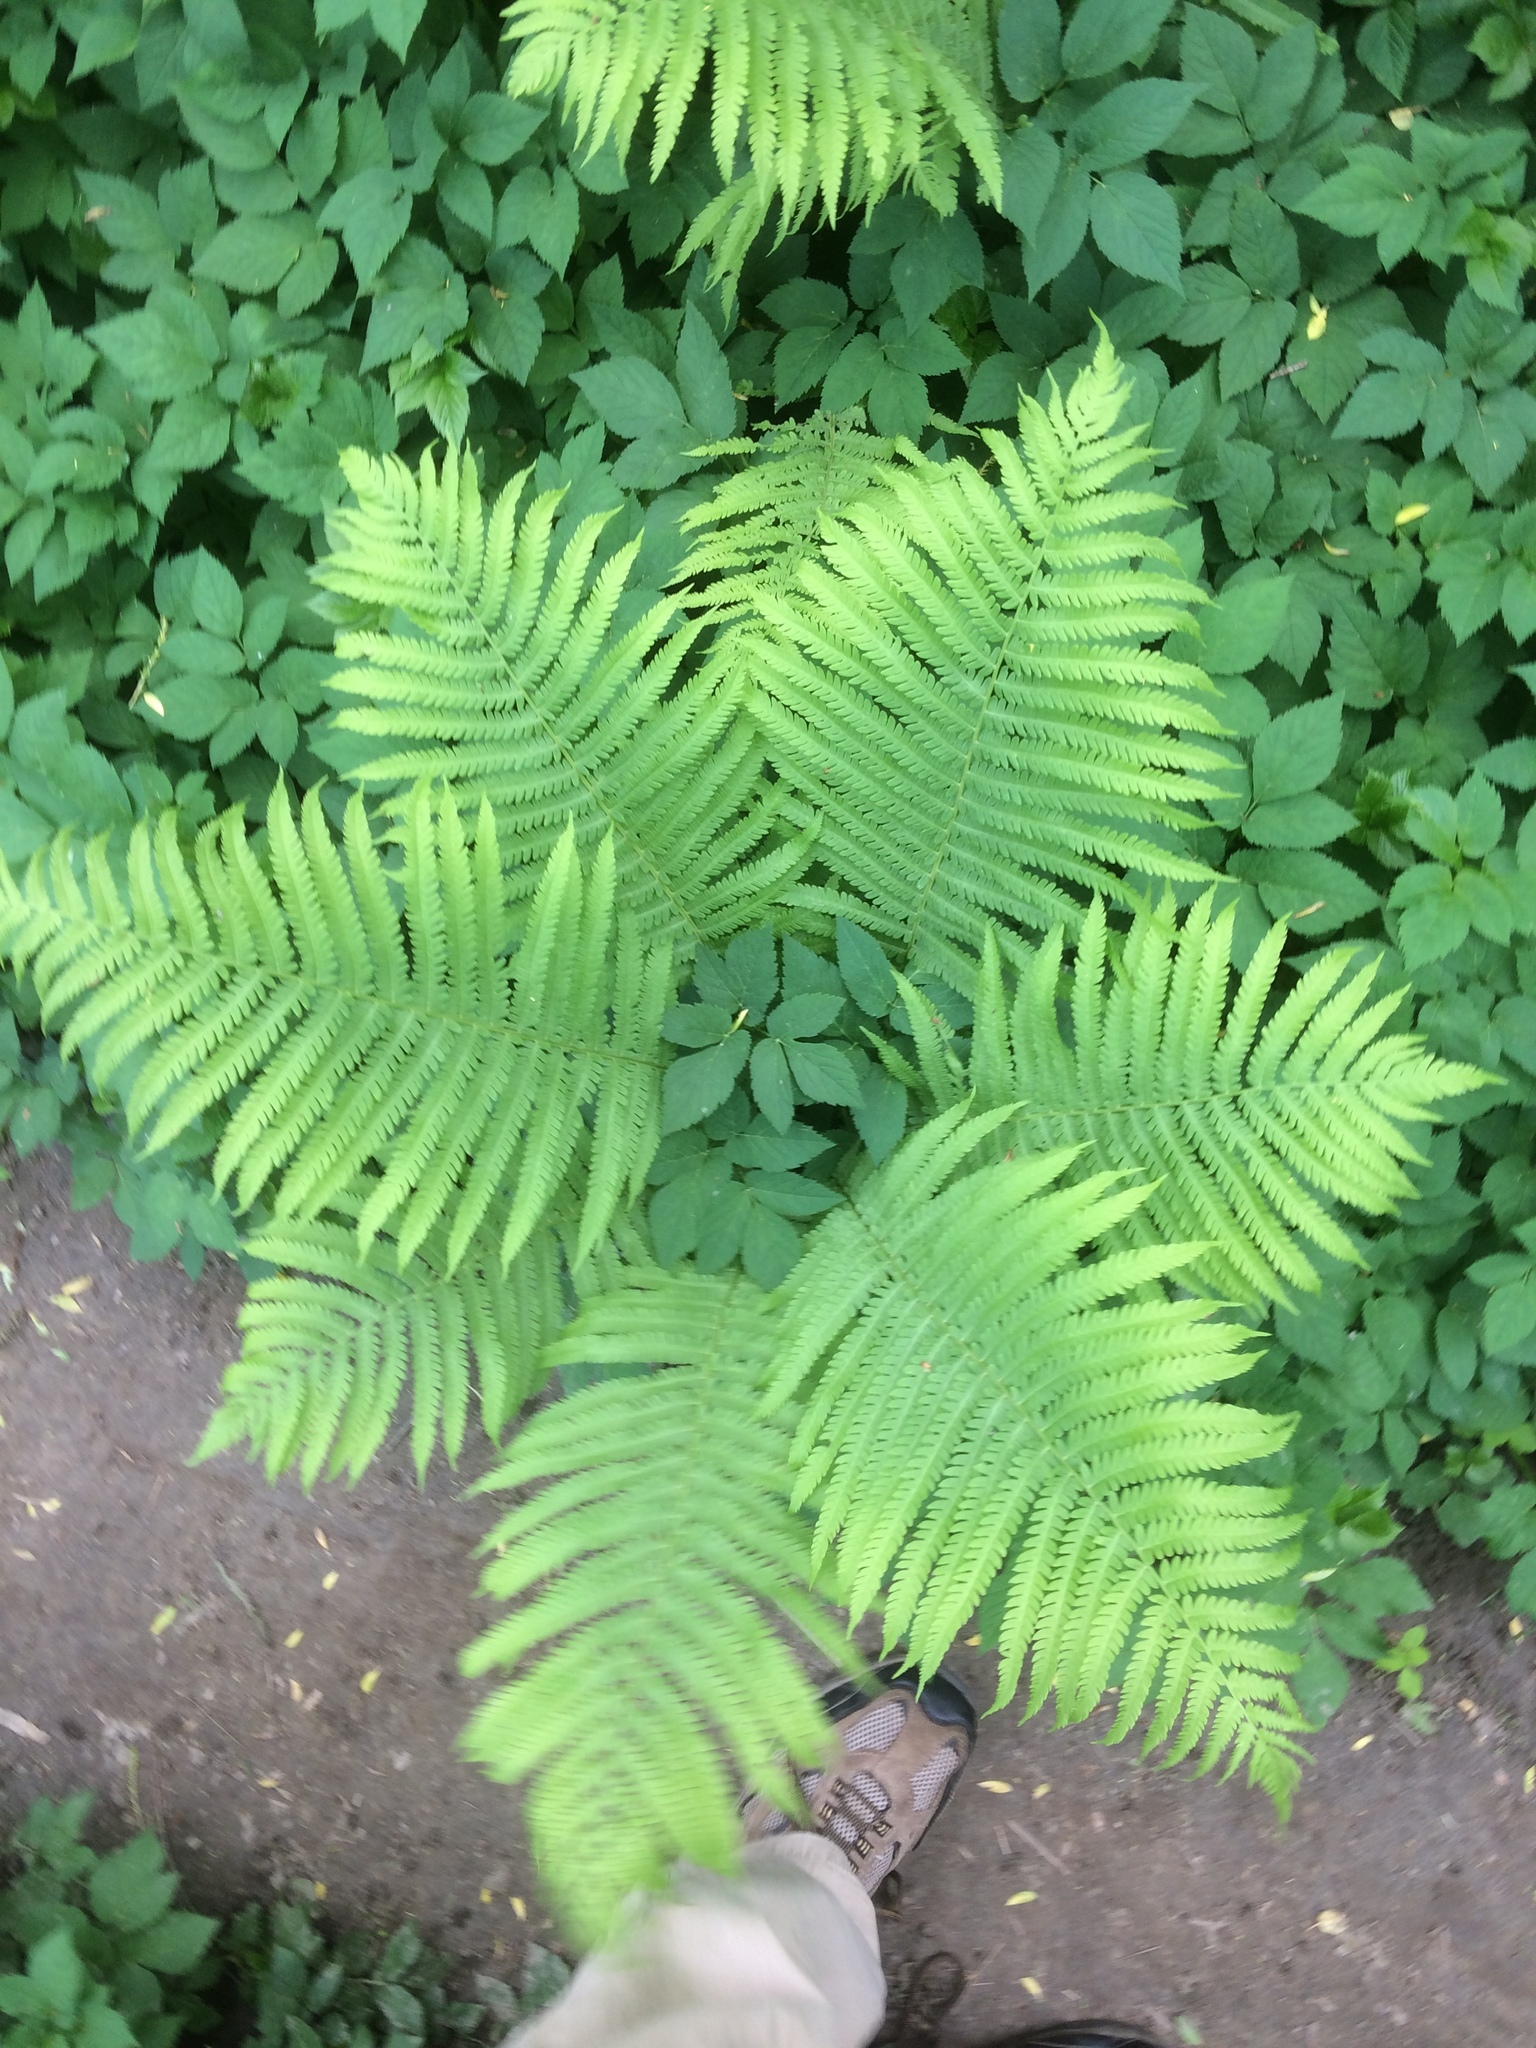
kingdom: Plantae
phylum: Tracheophyta
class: Polypodiopsida
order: Polypodiales
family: Onocleaceae
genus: Matteuccia
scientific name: Matteuccia struthiopteris
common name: Ostrich fern
